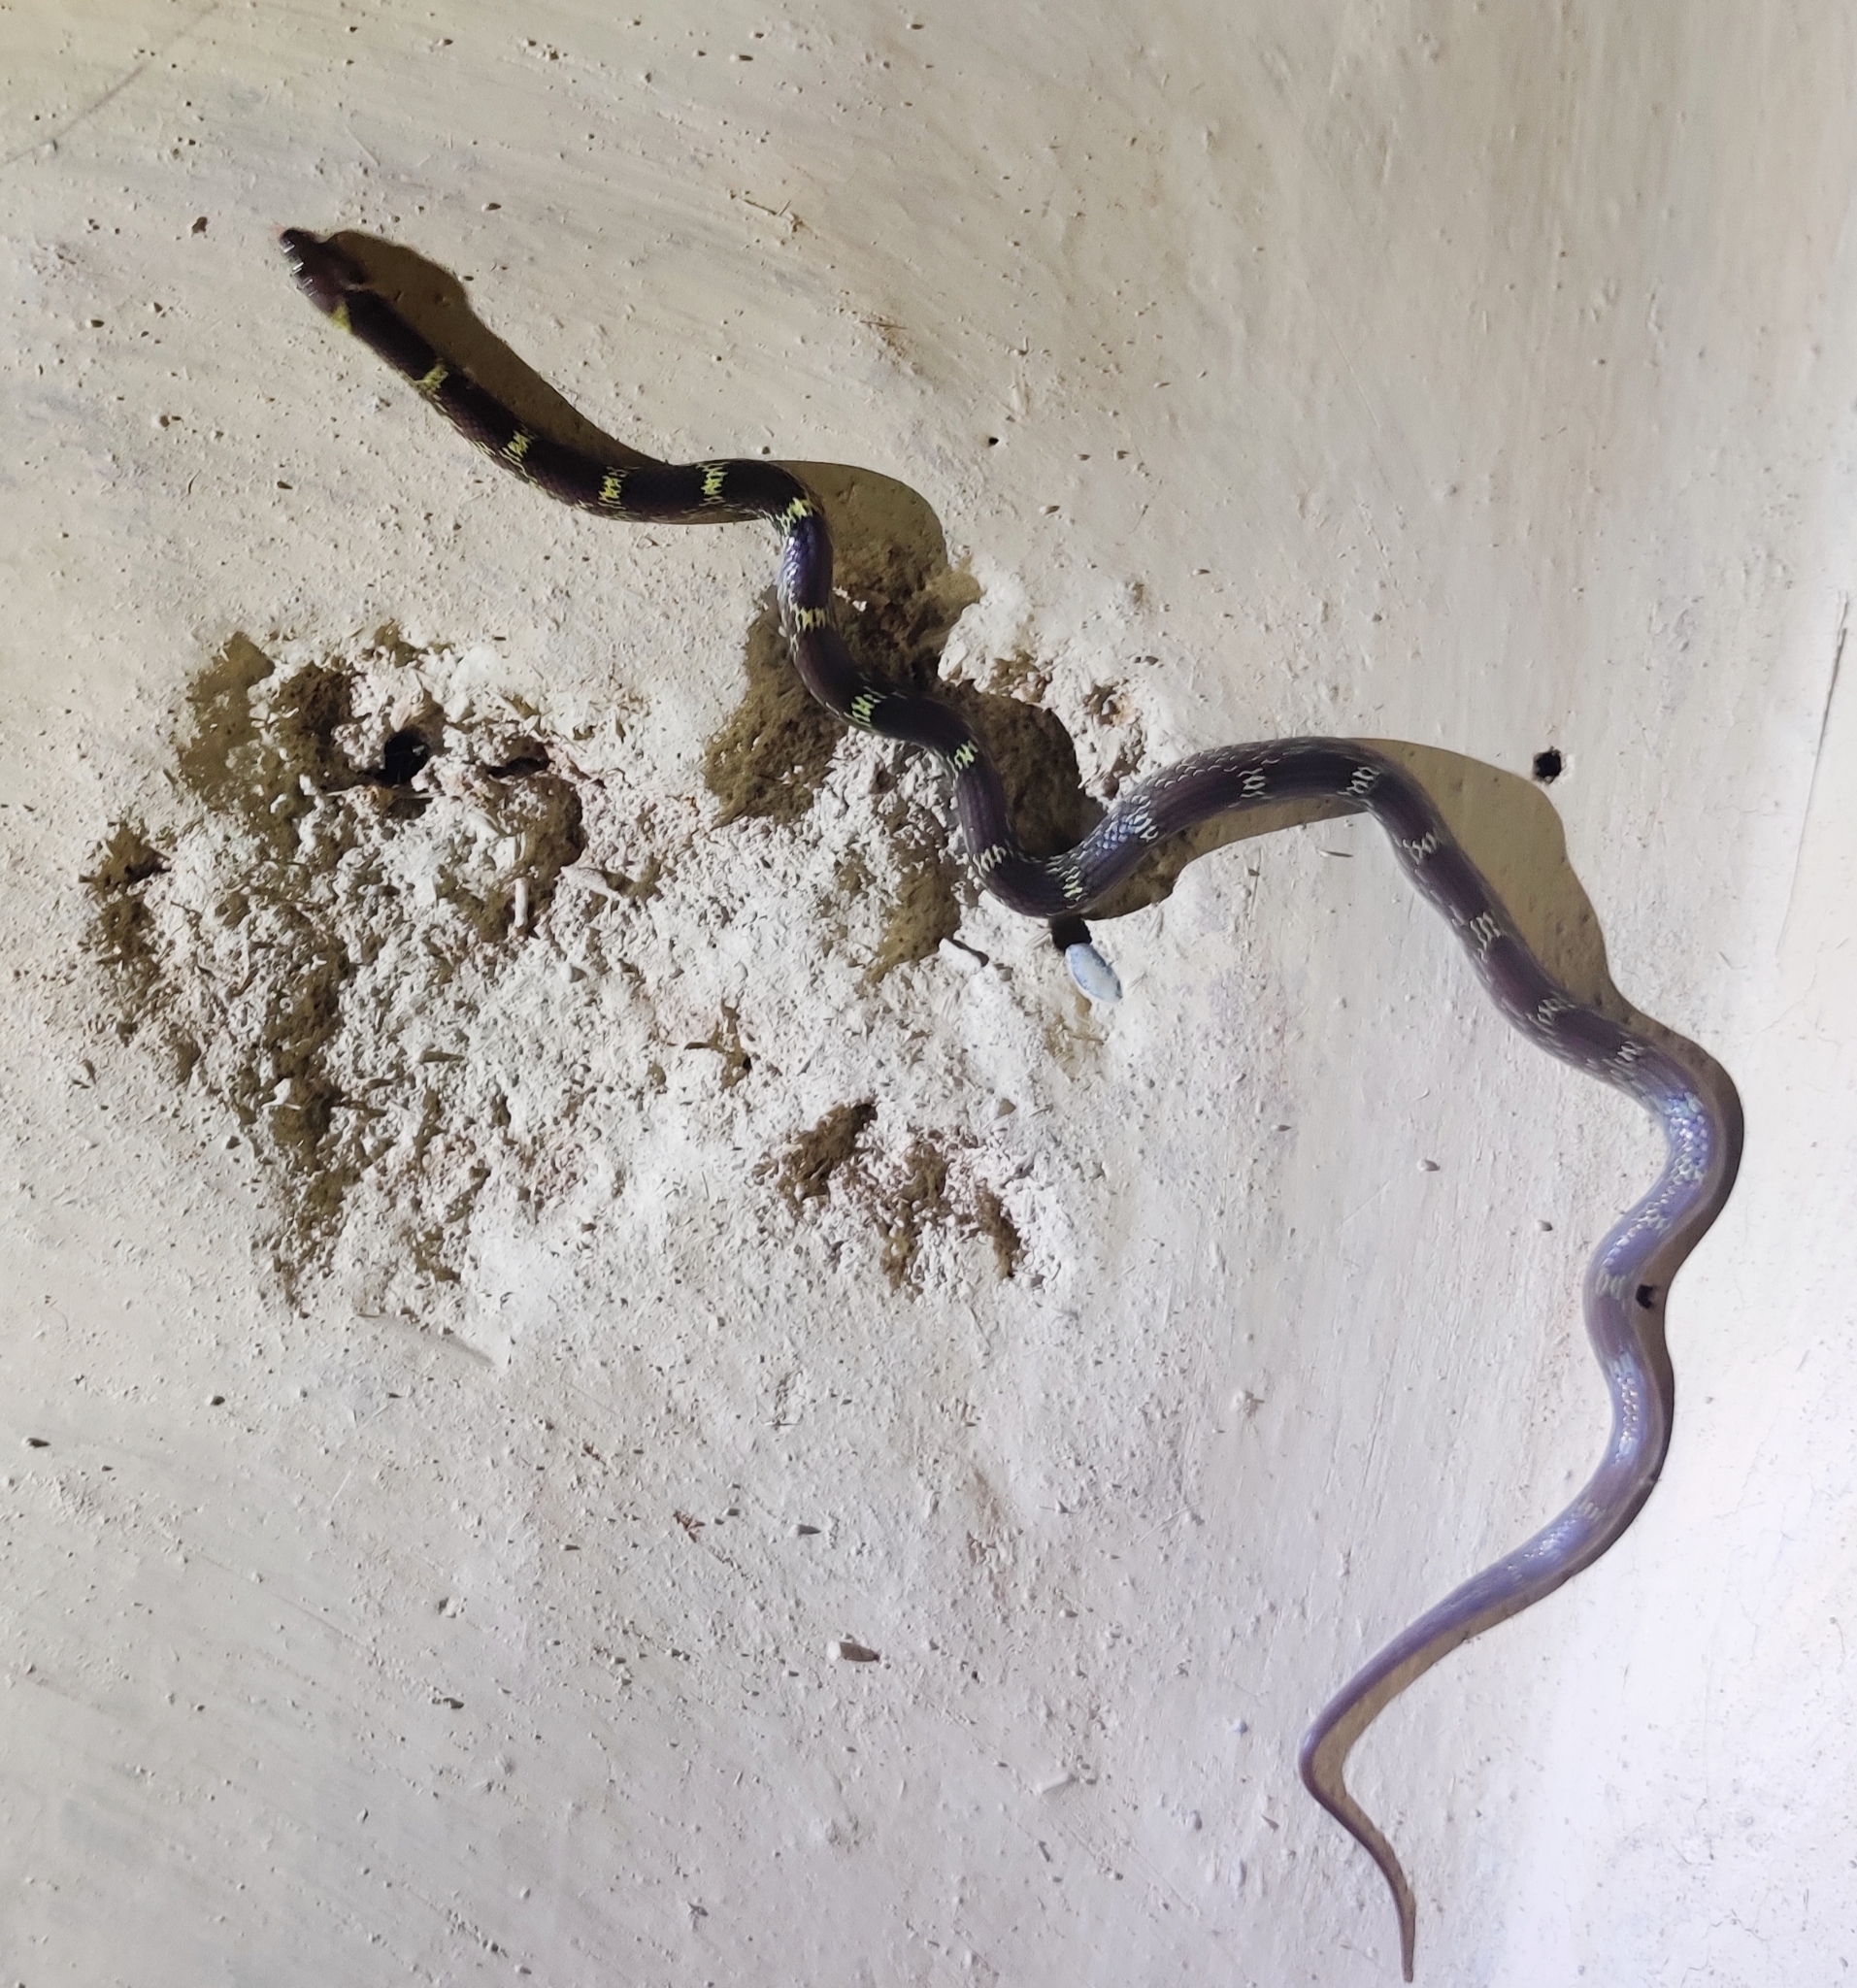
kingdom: Animalia
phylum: Chordata
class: Squamata
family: Colubridae
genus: Lycodon
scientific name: Lycodon aulicus
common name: Common wolf snake
